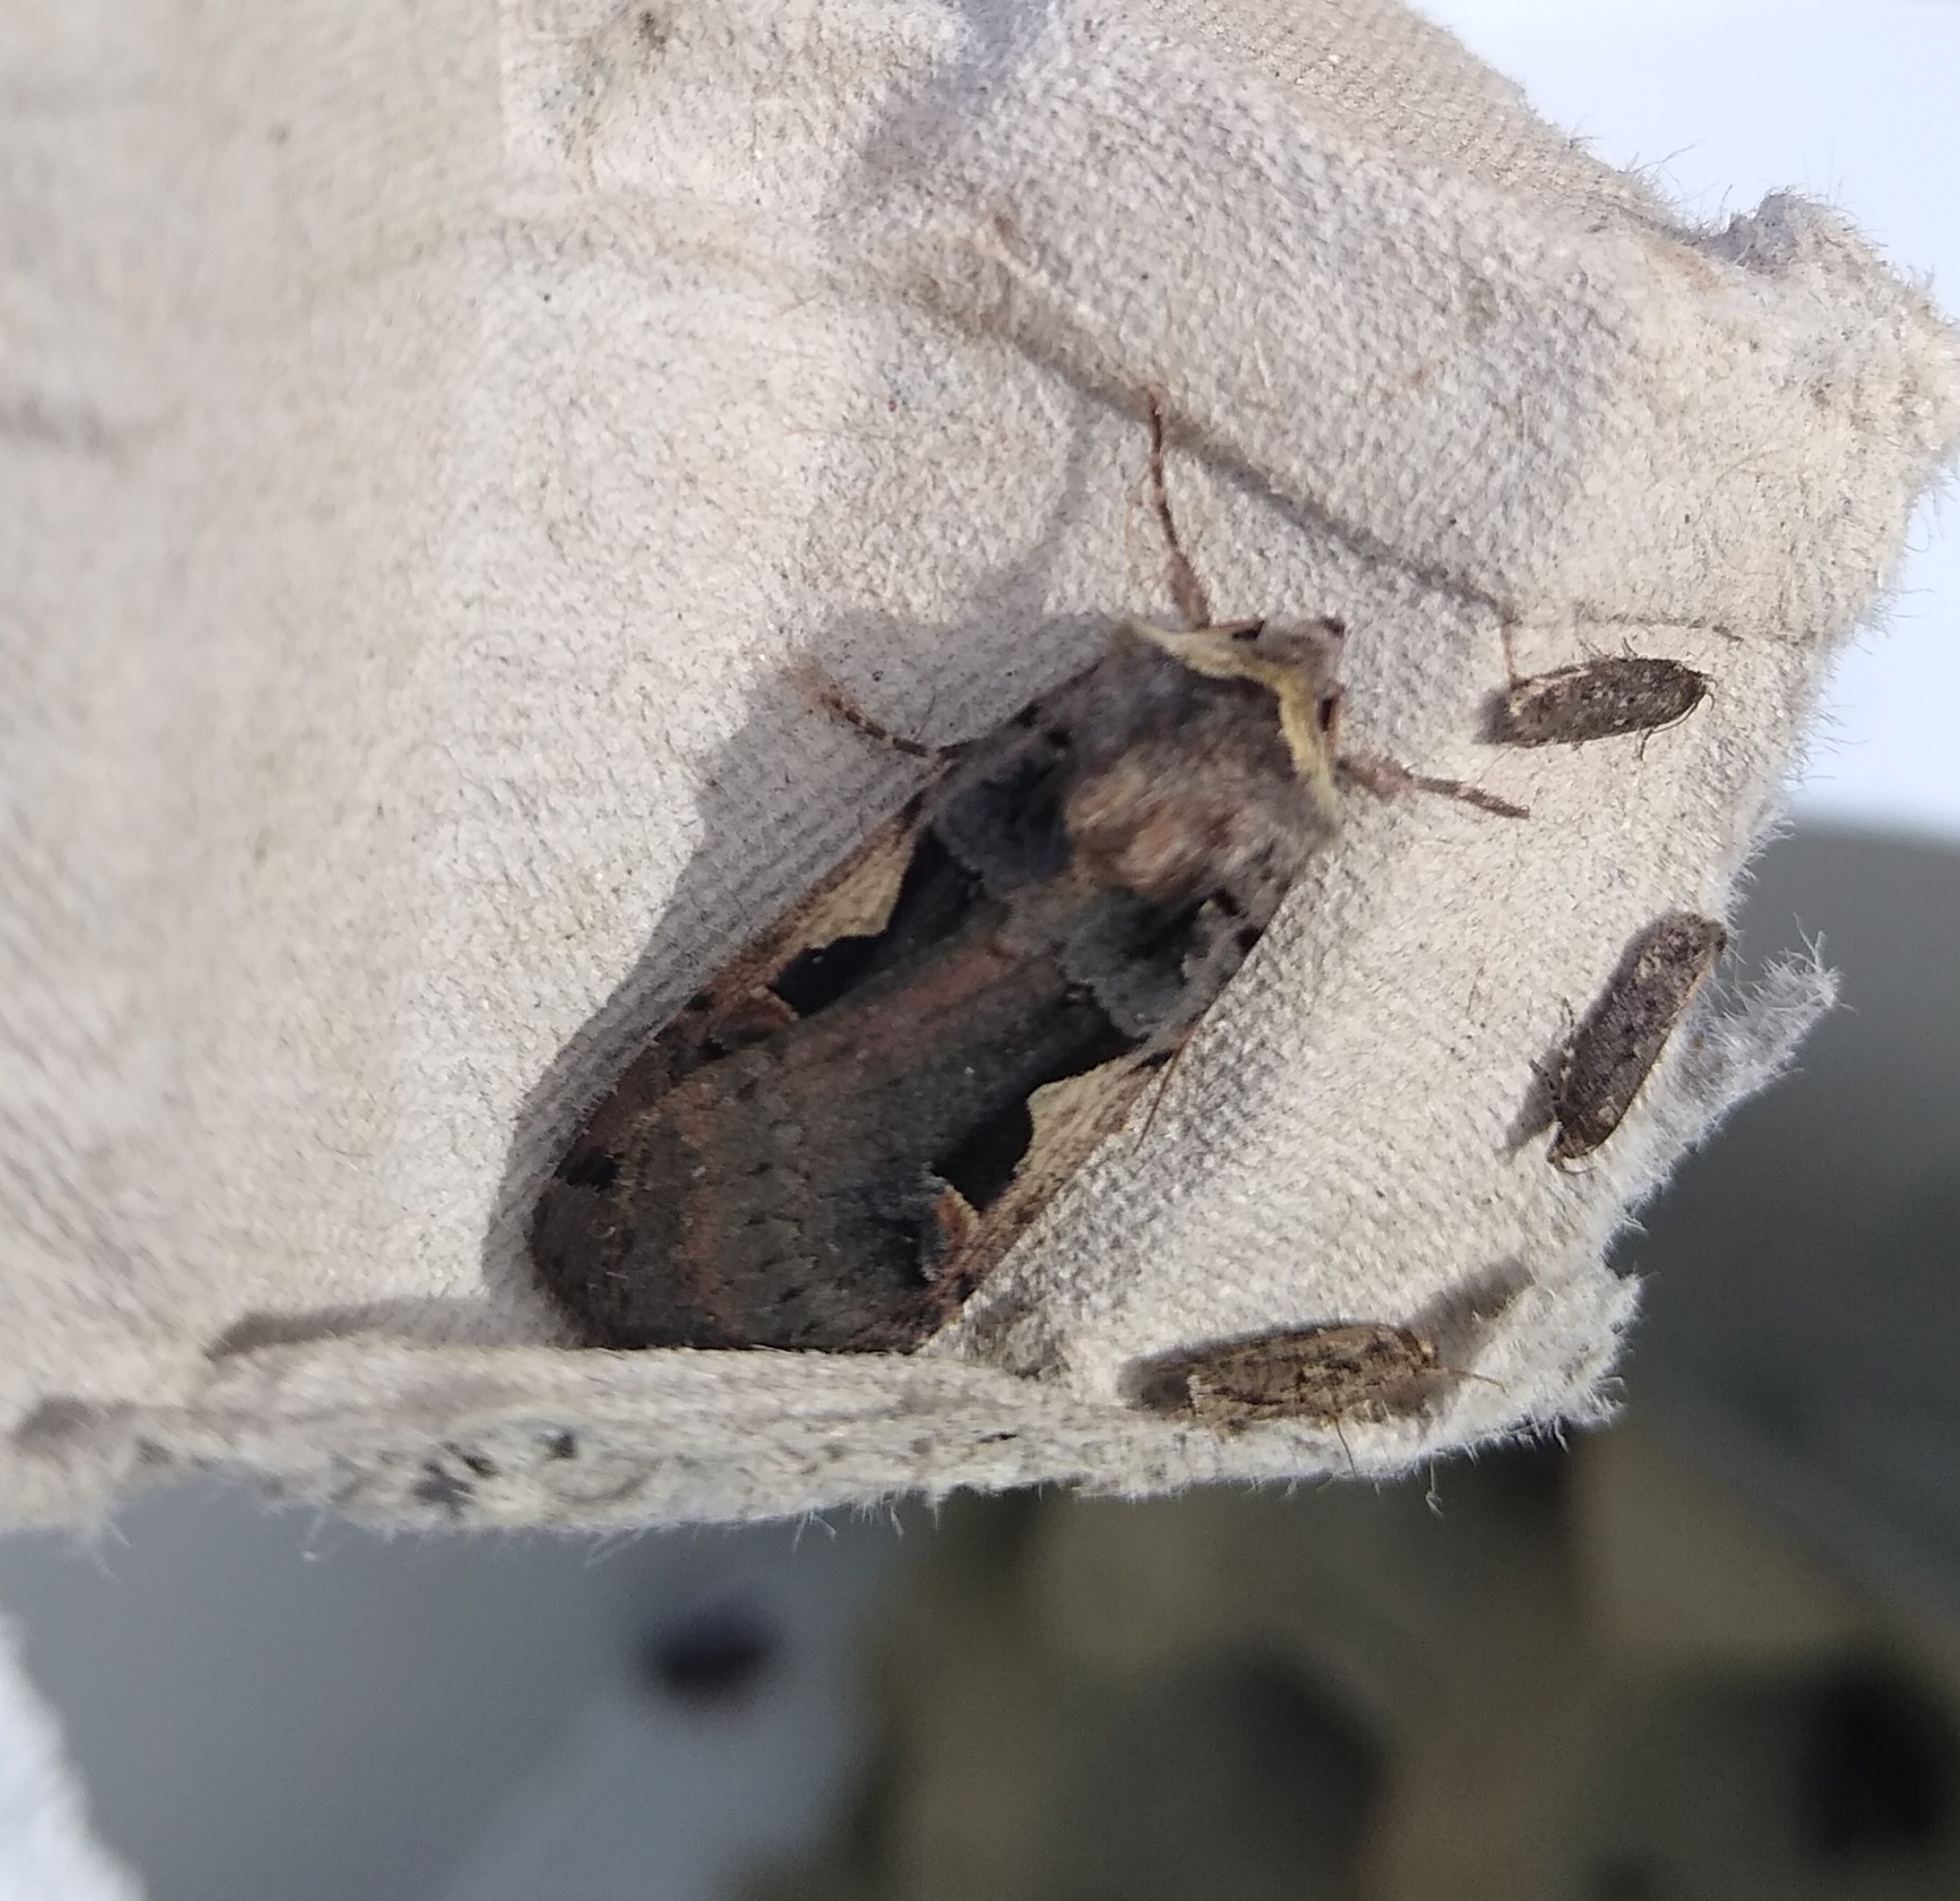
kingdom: Animalia
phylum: Arthropoda
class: Insecta
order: Lepidoptera
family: Noctuidae
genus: Xestia
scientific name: Xestia c-nigrum
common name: Setaceous hebrew character
